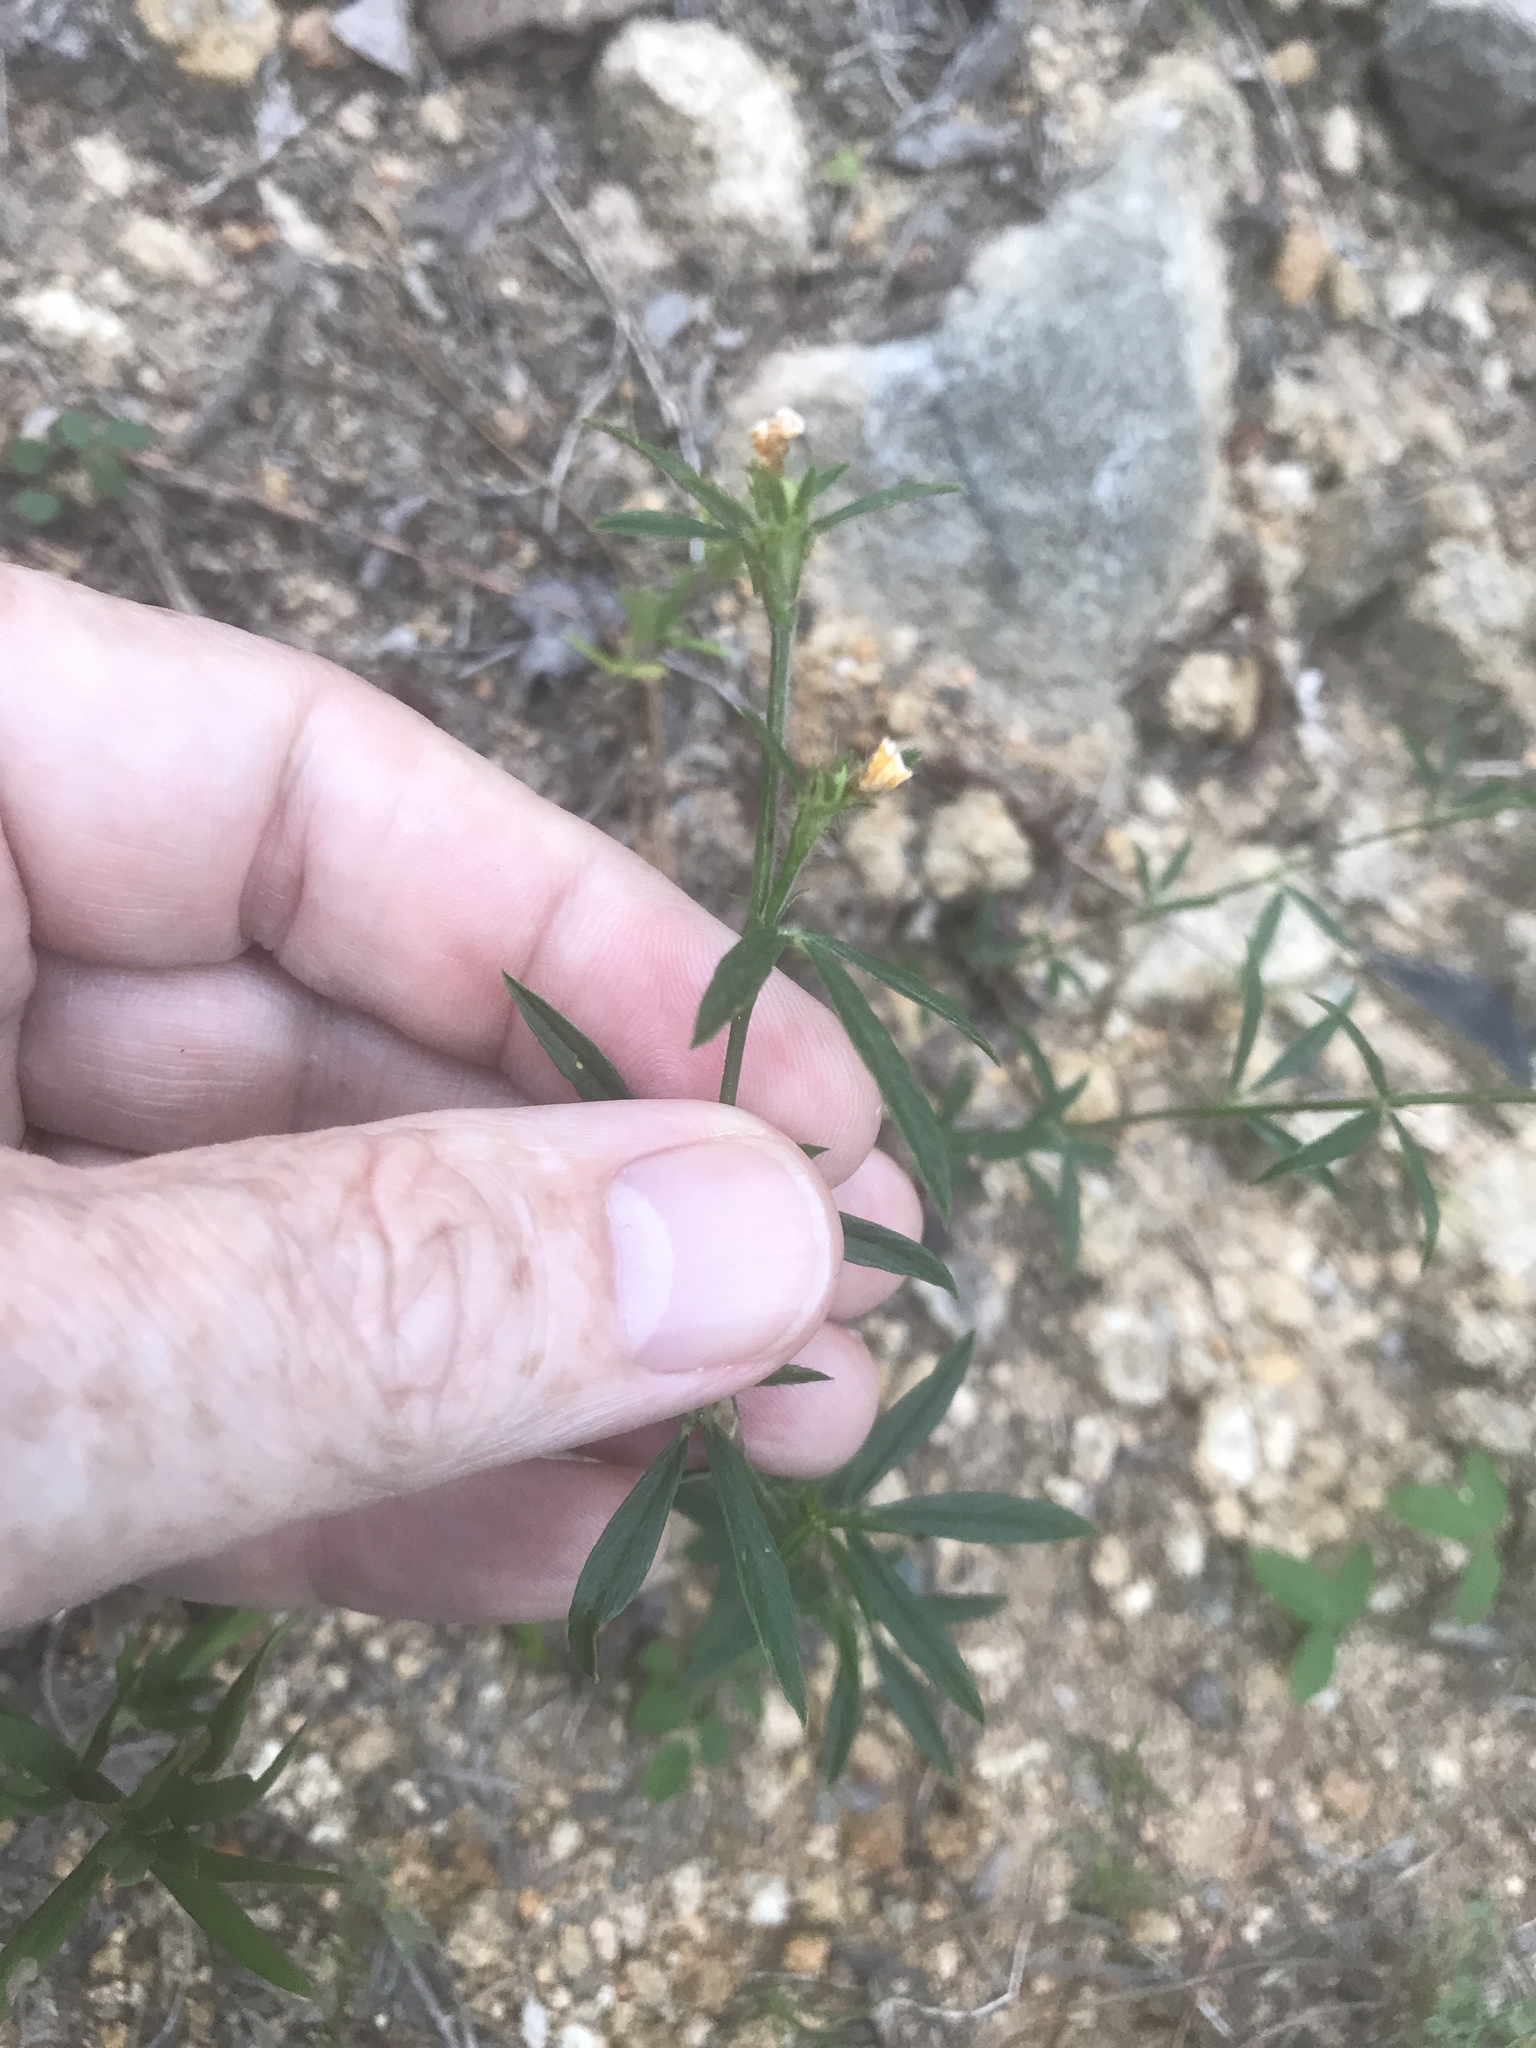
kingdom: Plantae
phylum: Tracheophyta
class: Magnoliopsida
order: Fabales
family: Fabaceae
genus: Stylosanthes
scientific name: Stylosanthes biflora
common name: Two-flower pencil-flower
